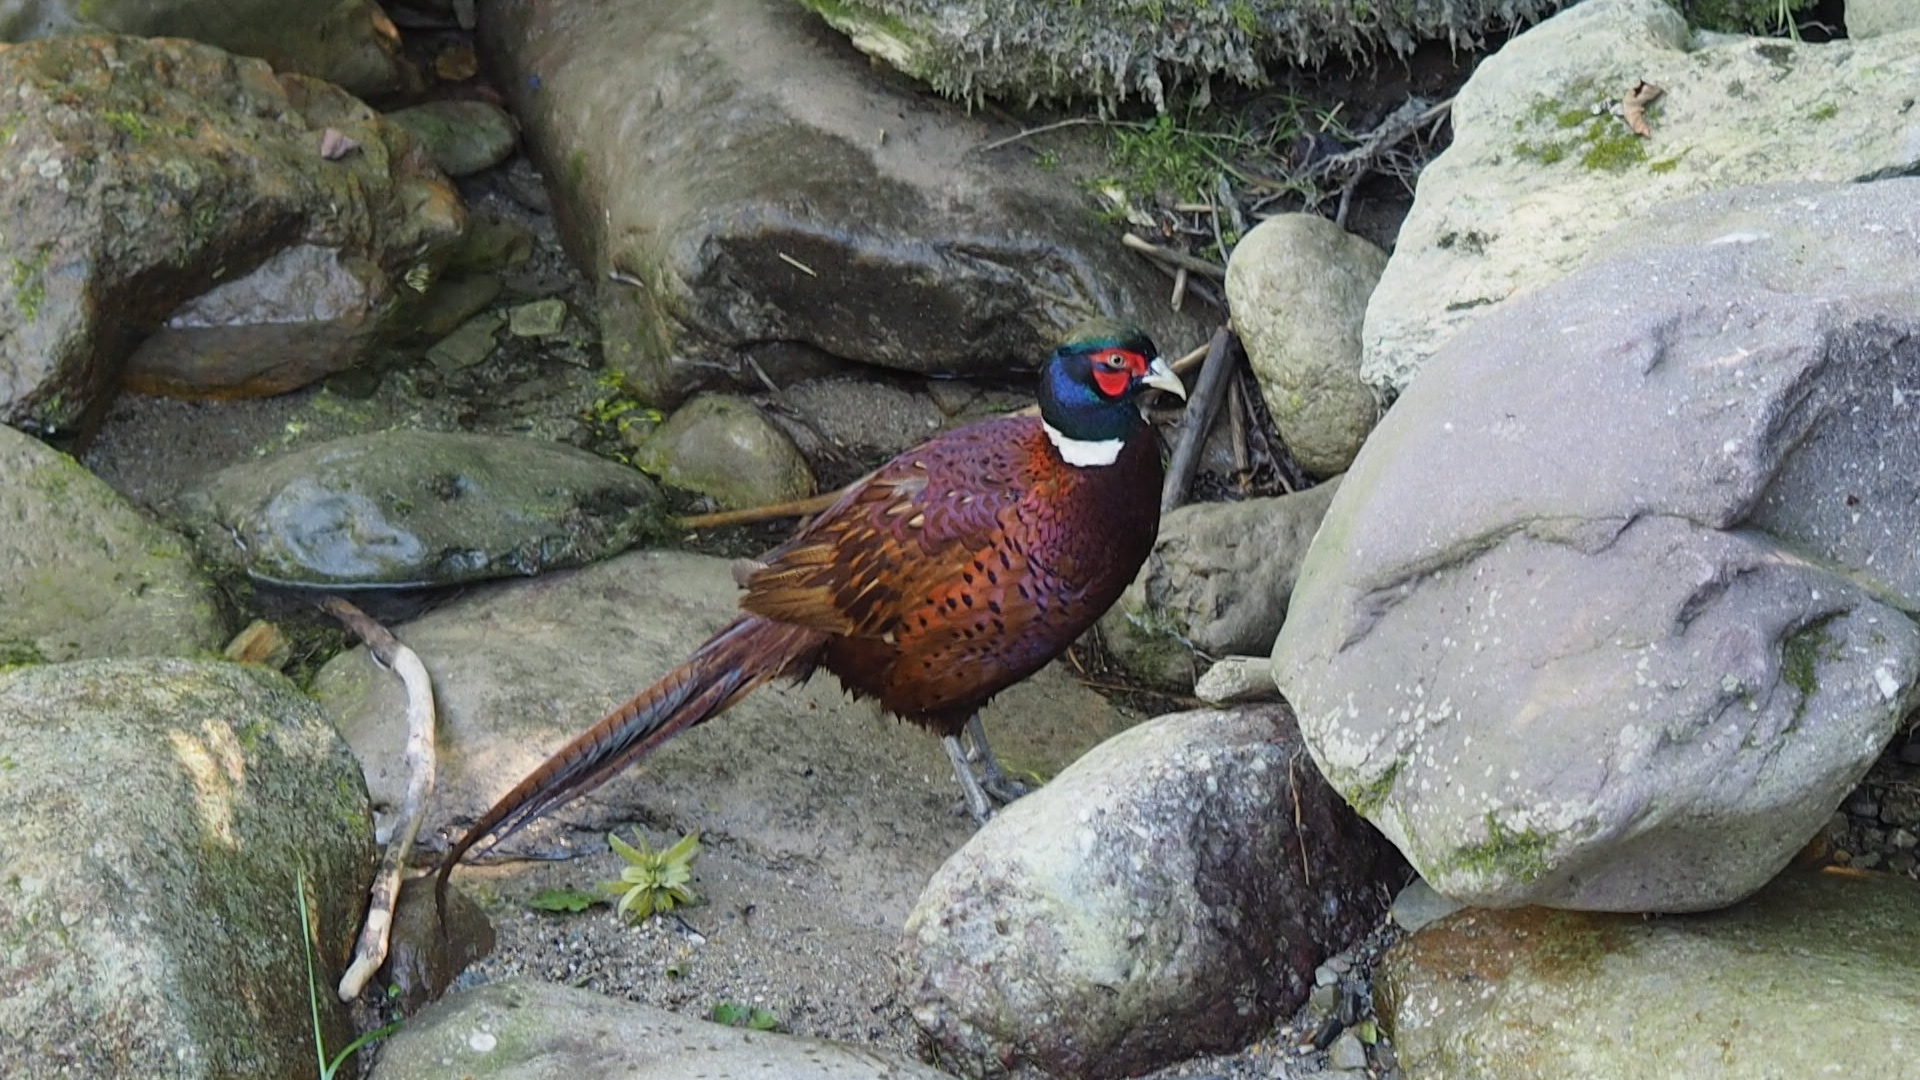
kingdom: Animalia
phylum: Chordata
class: Aves
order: Galliformes
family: Phasianidae
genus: Phasianus
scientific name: Phasianus colchicus
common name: Common pheasant
